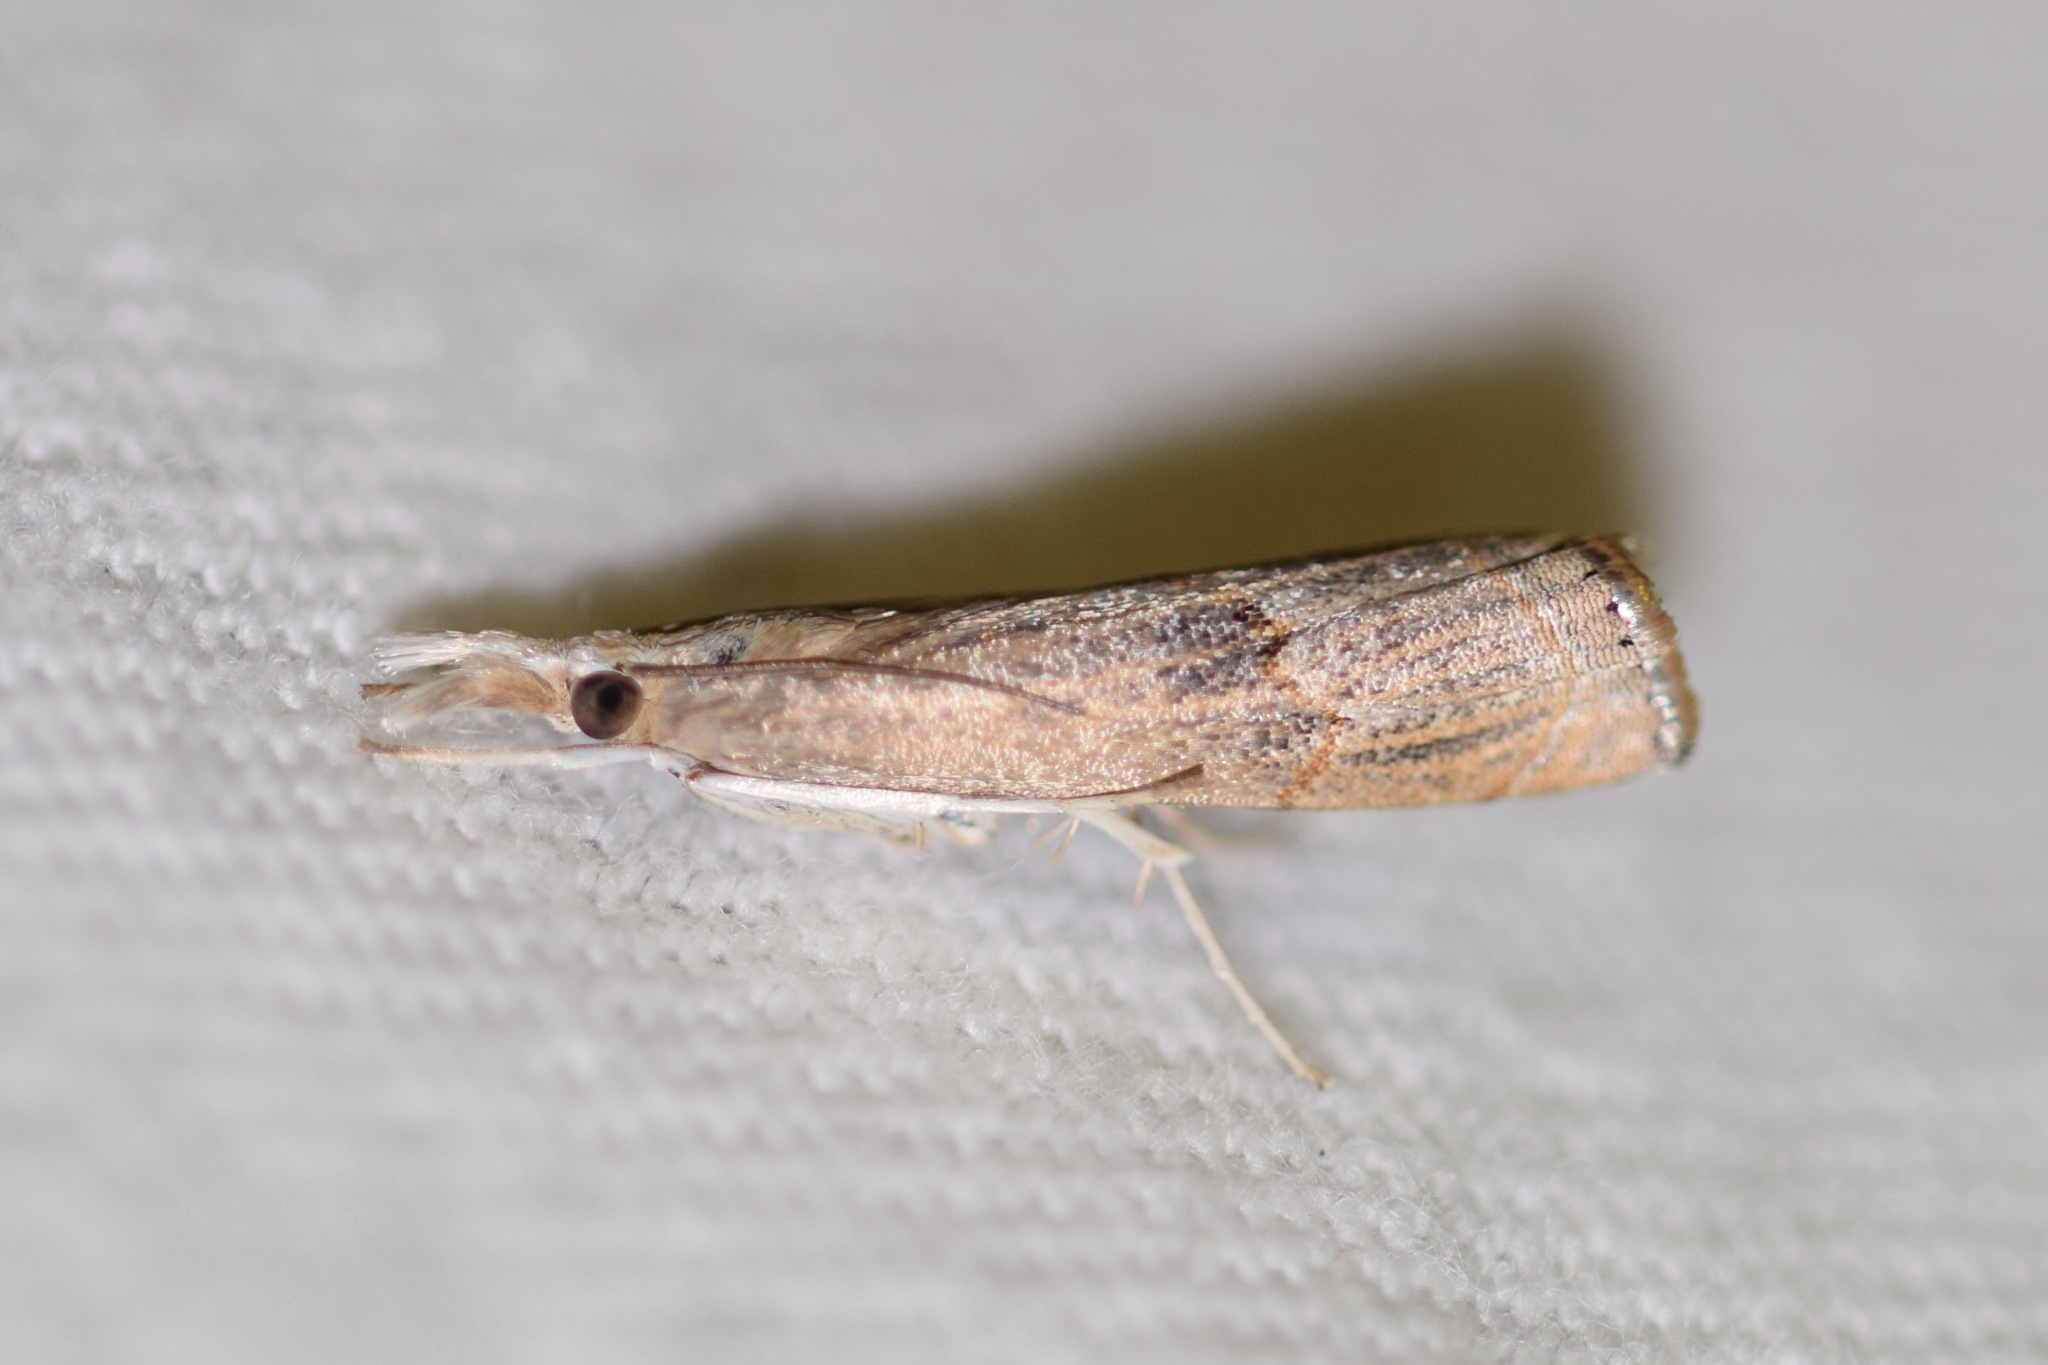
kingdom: Animalia
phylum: Arthropoda
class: Insecta
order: Lepidoptera
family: Crambidae
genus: Parapediasia
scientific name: Parapediasia teterellus
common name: Bluegrass webworm moth
